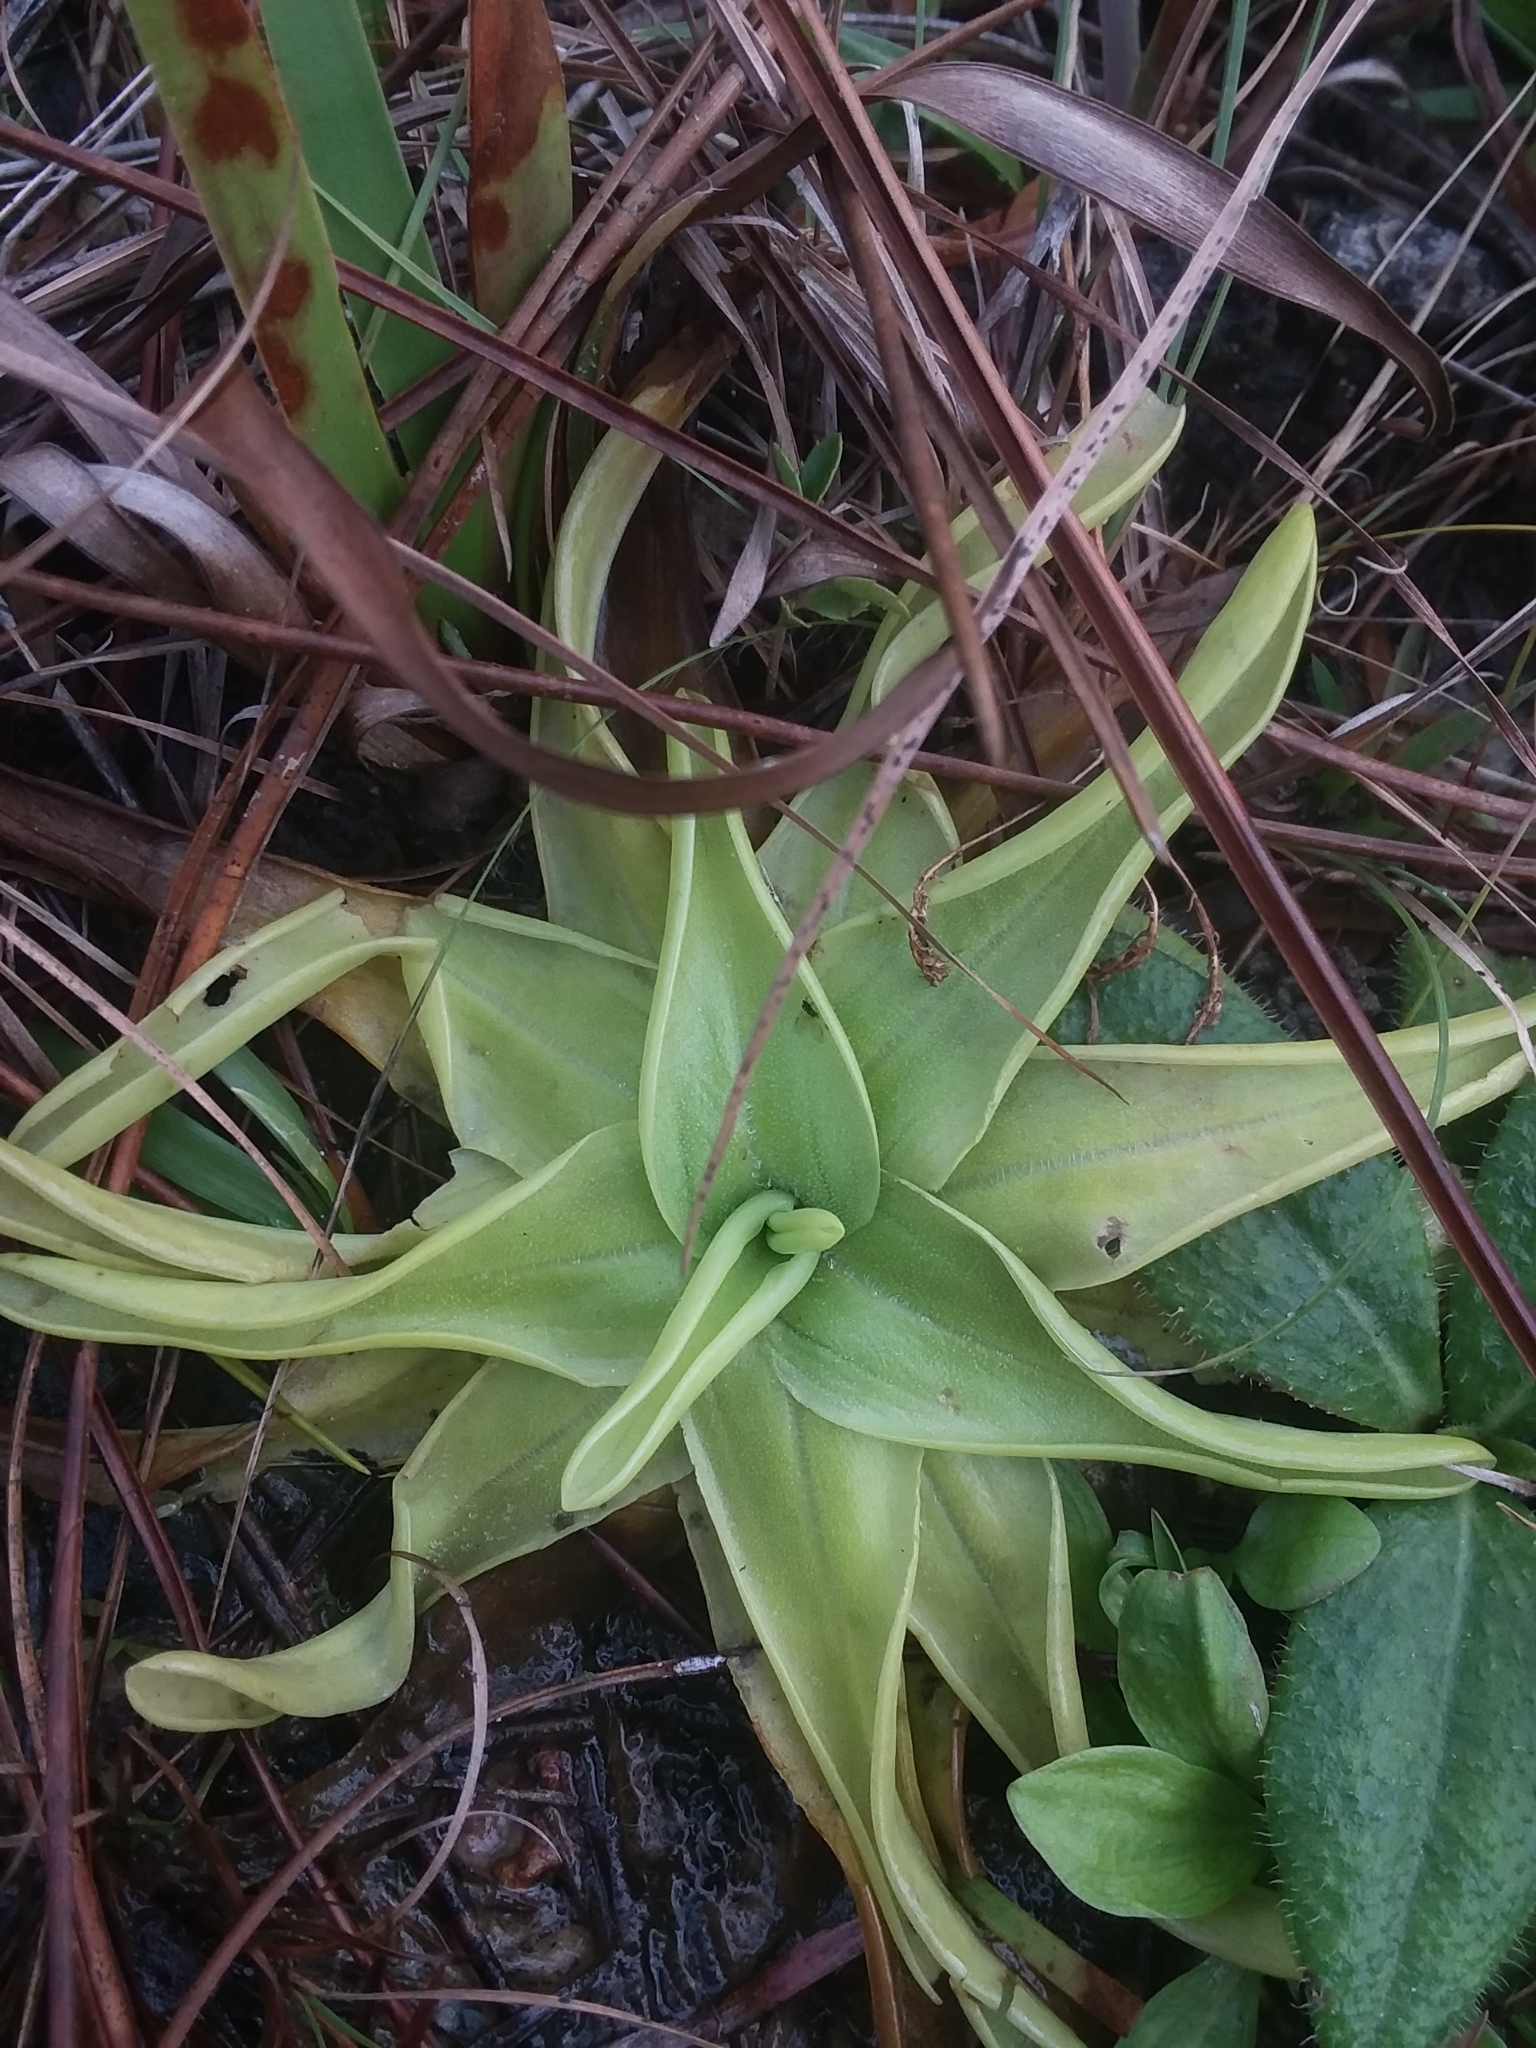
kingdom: Plantae
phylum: Tracheophyta
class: Magnoliopsida
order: Lamiales
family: Lentibulariaceae
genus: Pinguicula
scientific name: Pinguicula lutea
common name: Yellow butterwort
